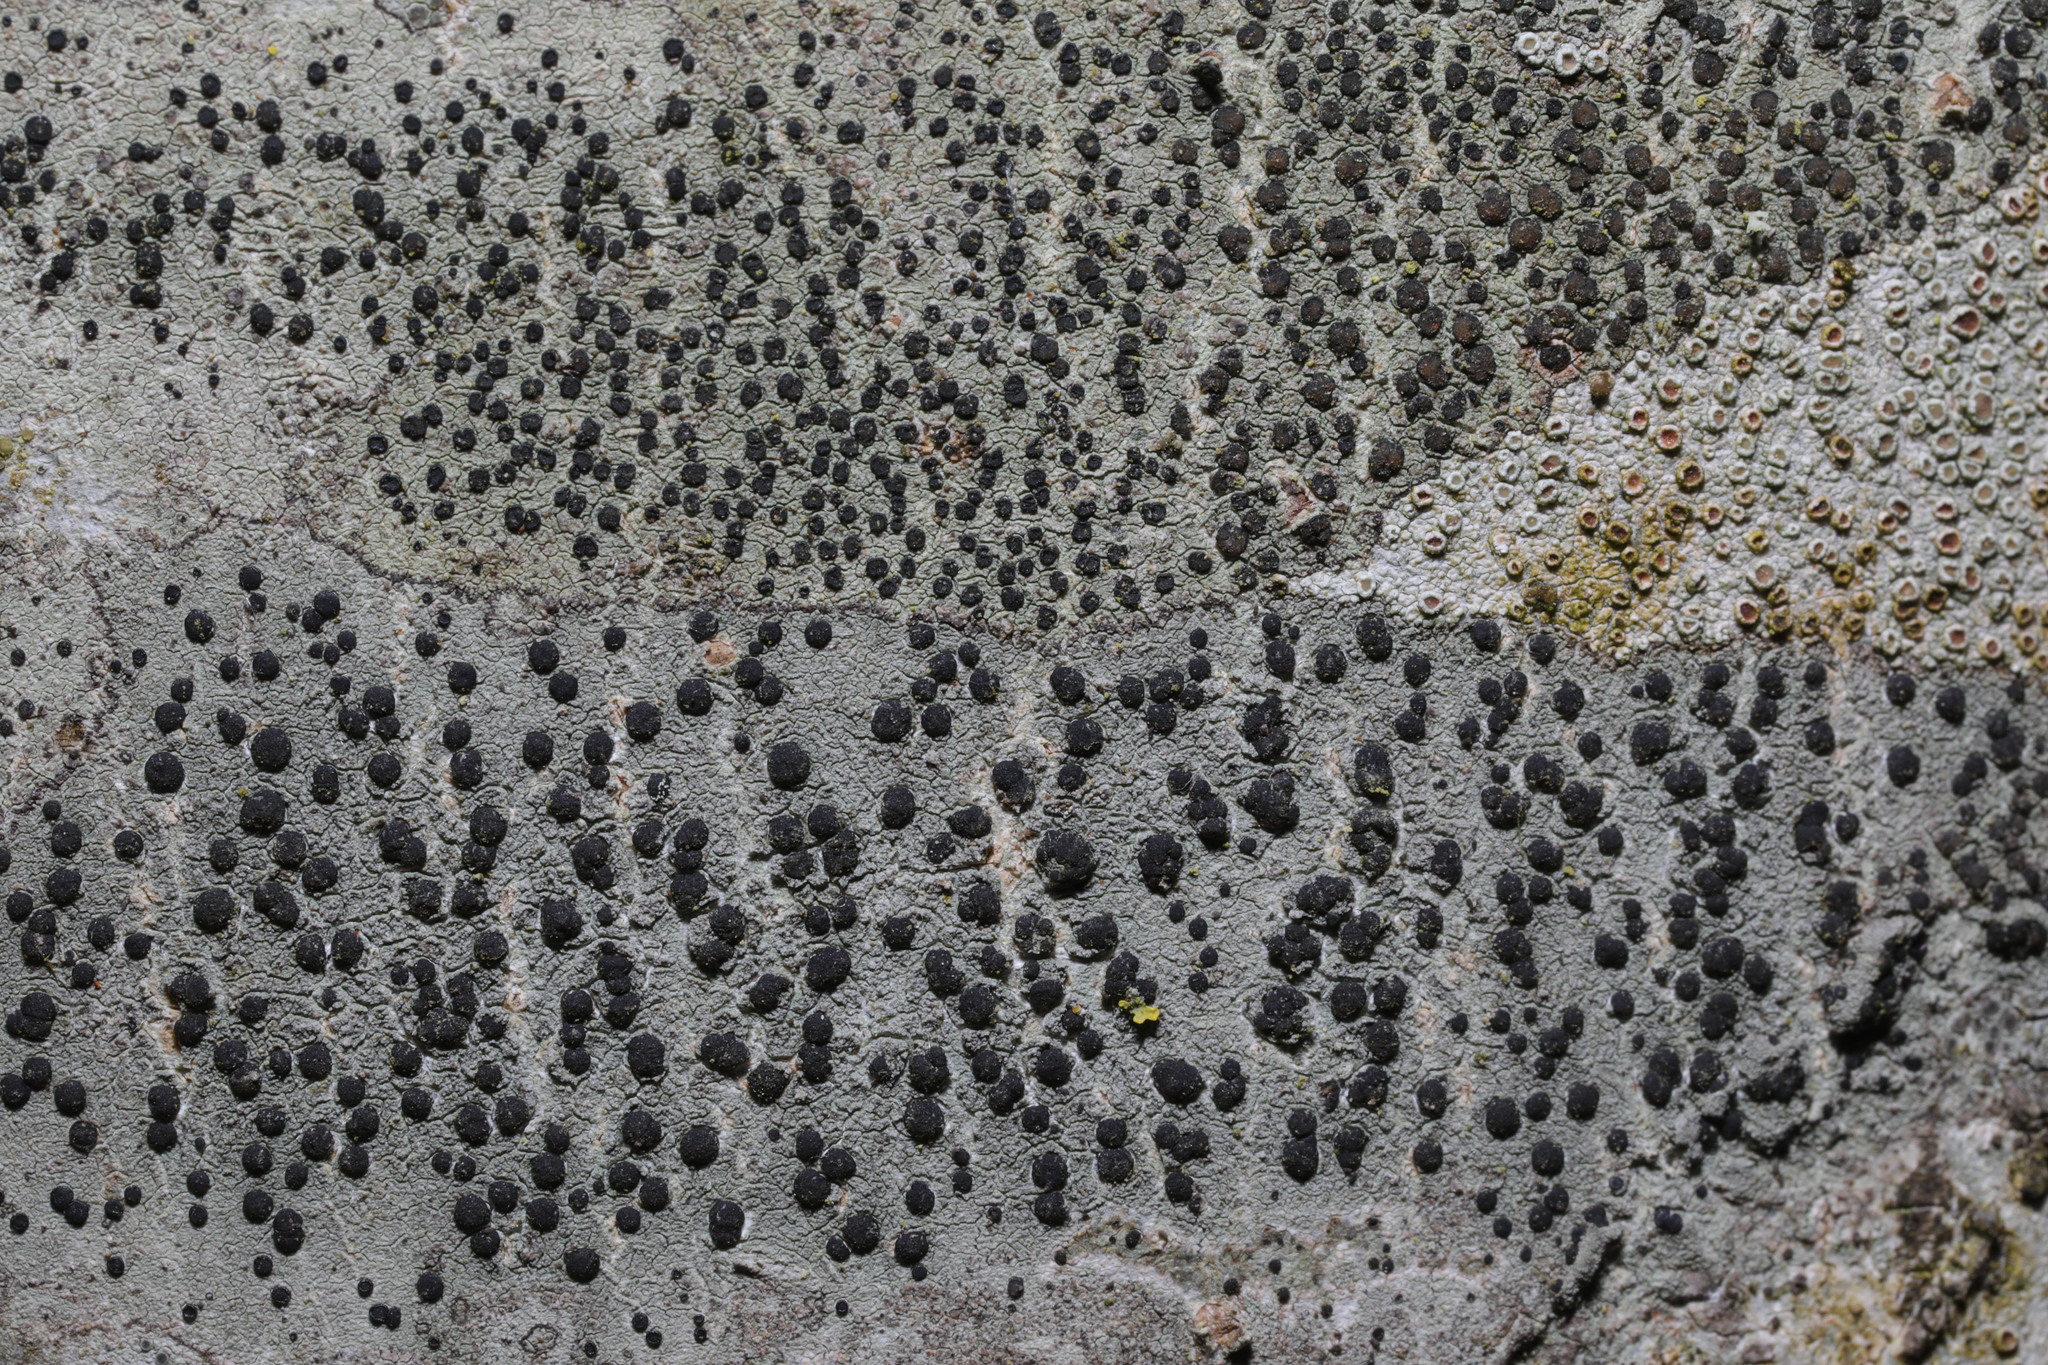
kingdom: Fungi
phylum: Ascomycota
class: Lecanoromycetes
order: Lecanorales
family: Lecanoraceae
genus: Lecidella
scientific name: Lecidella elaeochroma
